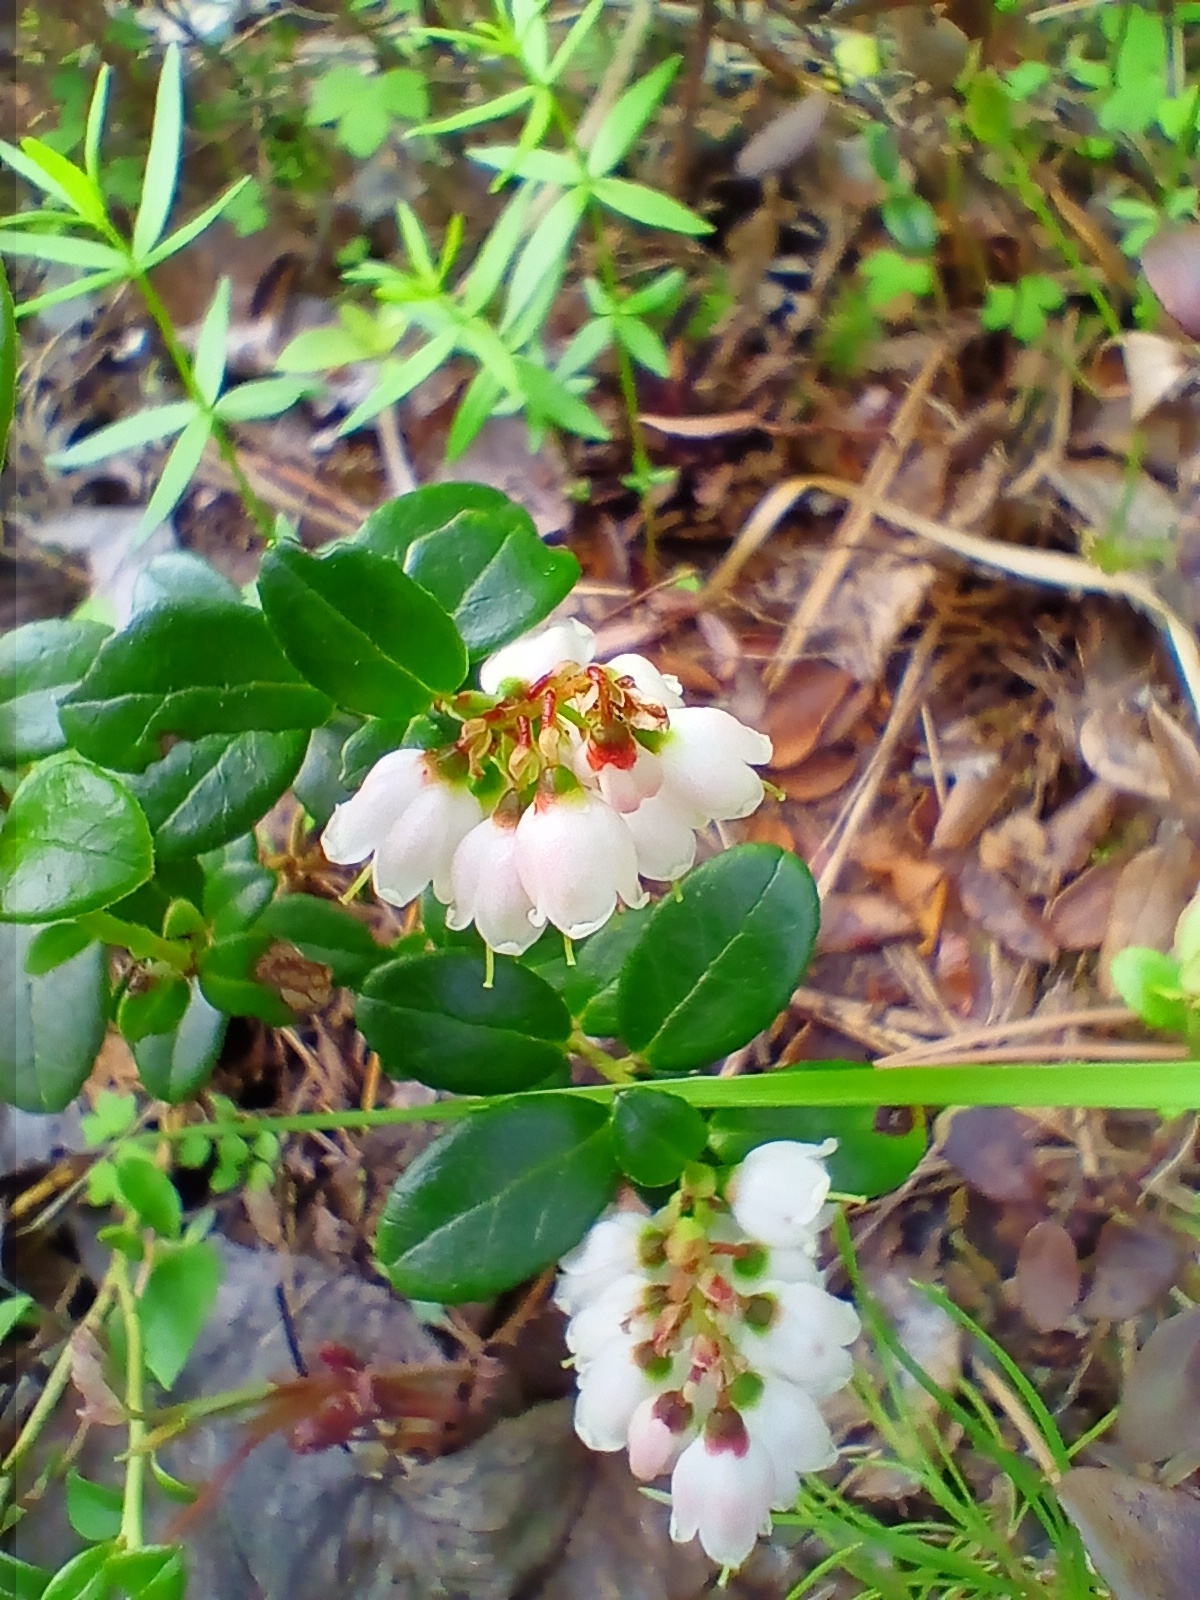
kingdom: Plantae
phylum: Tracheophyta
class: Magnoliopsida
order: Ericales
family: Ericaceae
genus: Vaccinium
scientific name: Vaccinium vitis-idaea
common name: Cowberry
